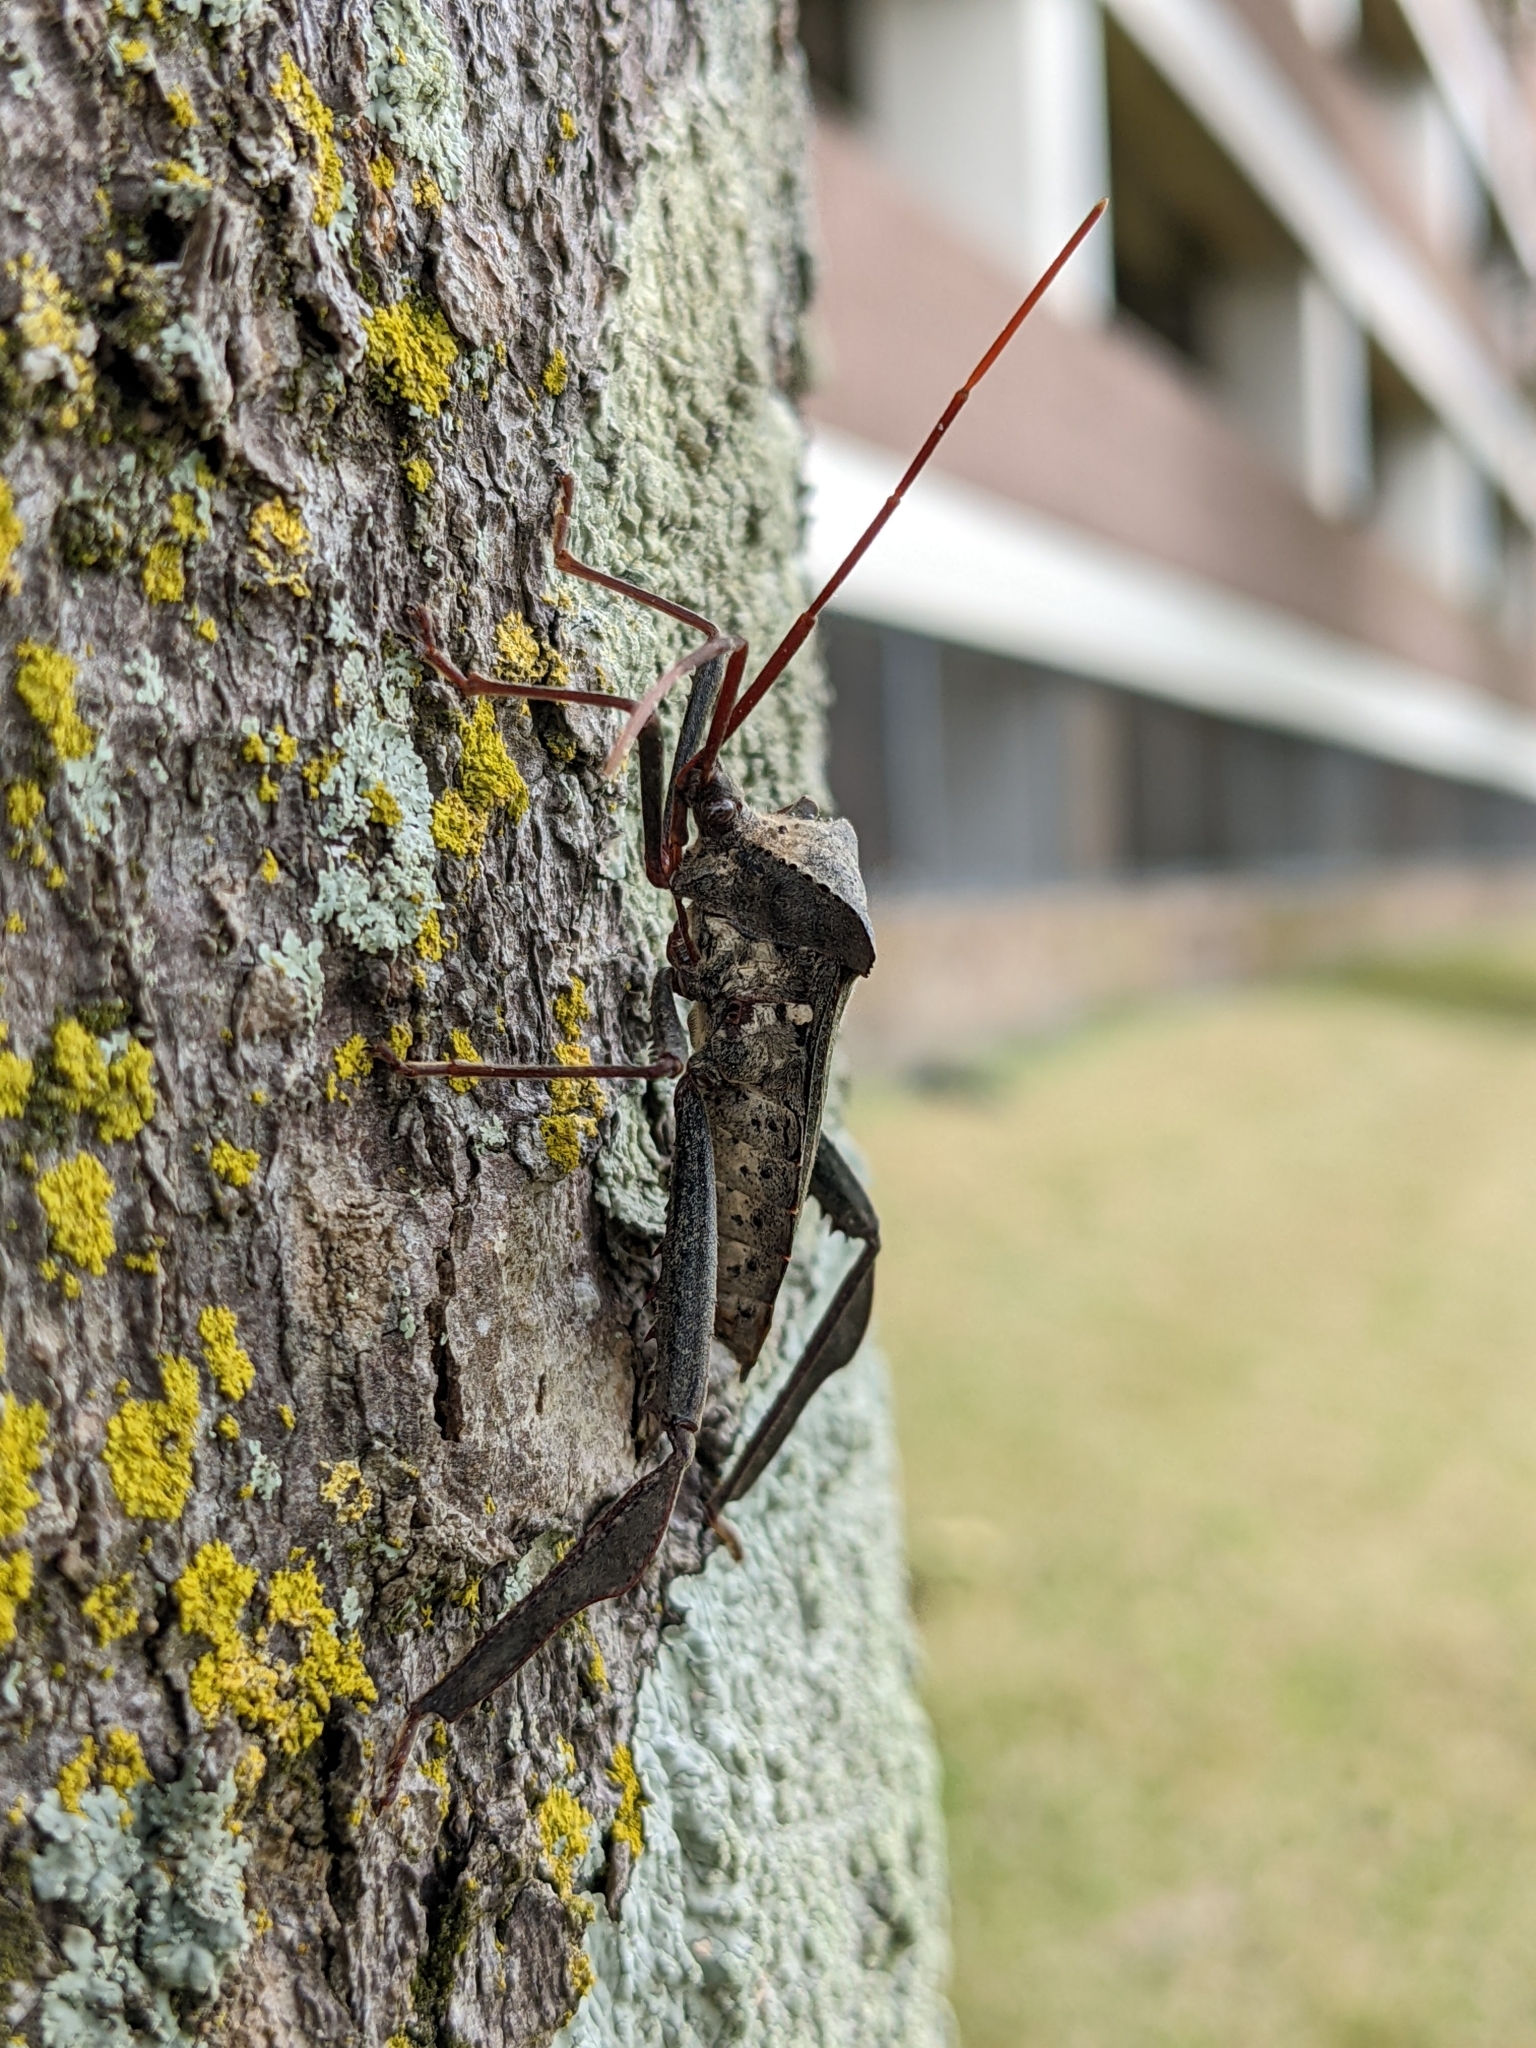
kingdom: Animalia
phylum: Arthropoda
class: Insecta
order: Hemiptera
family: Coreidae
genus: Acanthocephala
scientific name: Acanthocephala declivis
